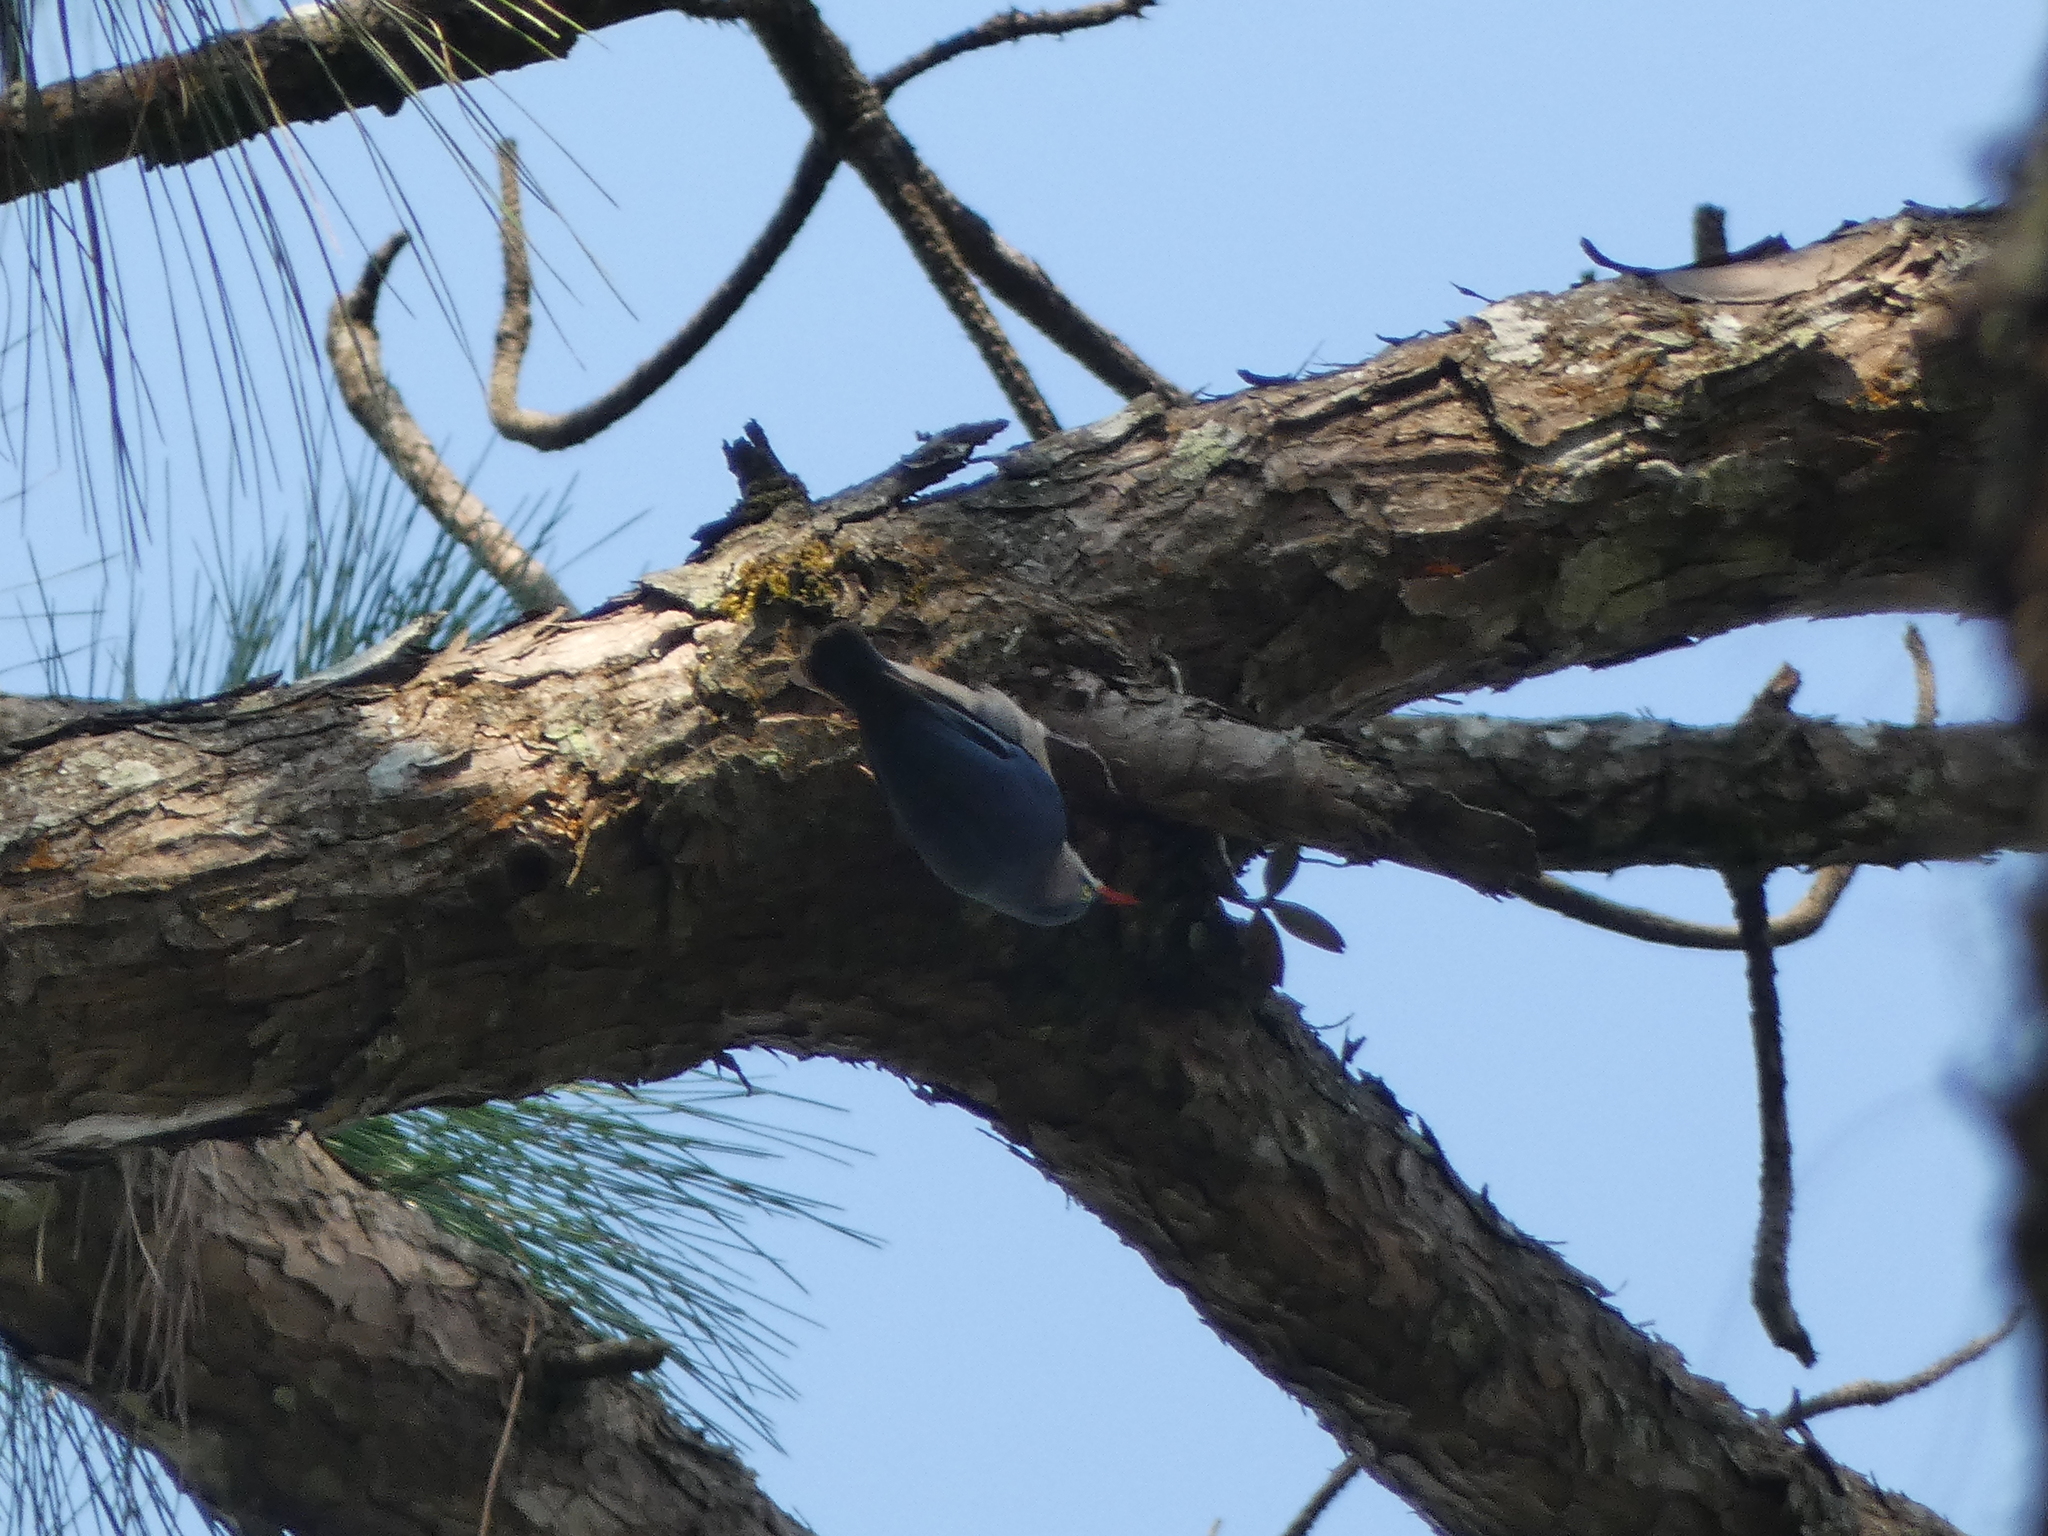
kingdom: Animalia
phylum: Chordata
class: Aves
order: Passeriformes
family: Sittidae
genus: Sitta
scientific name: Sitta frontalis
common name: Velvet-fronted nuthatch
